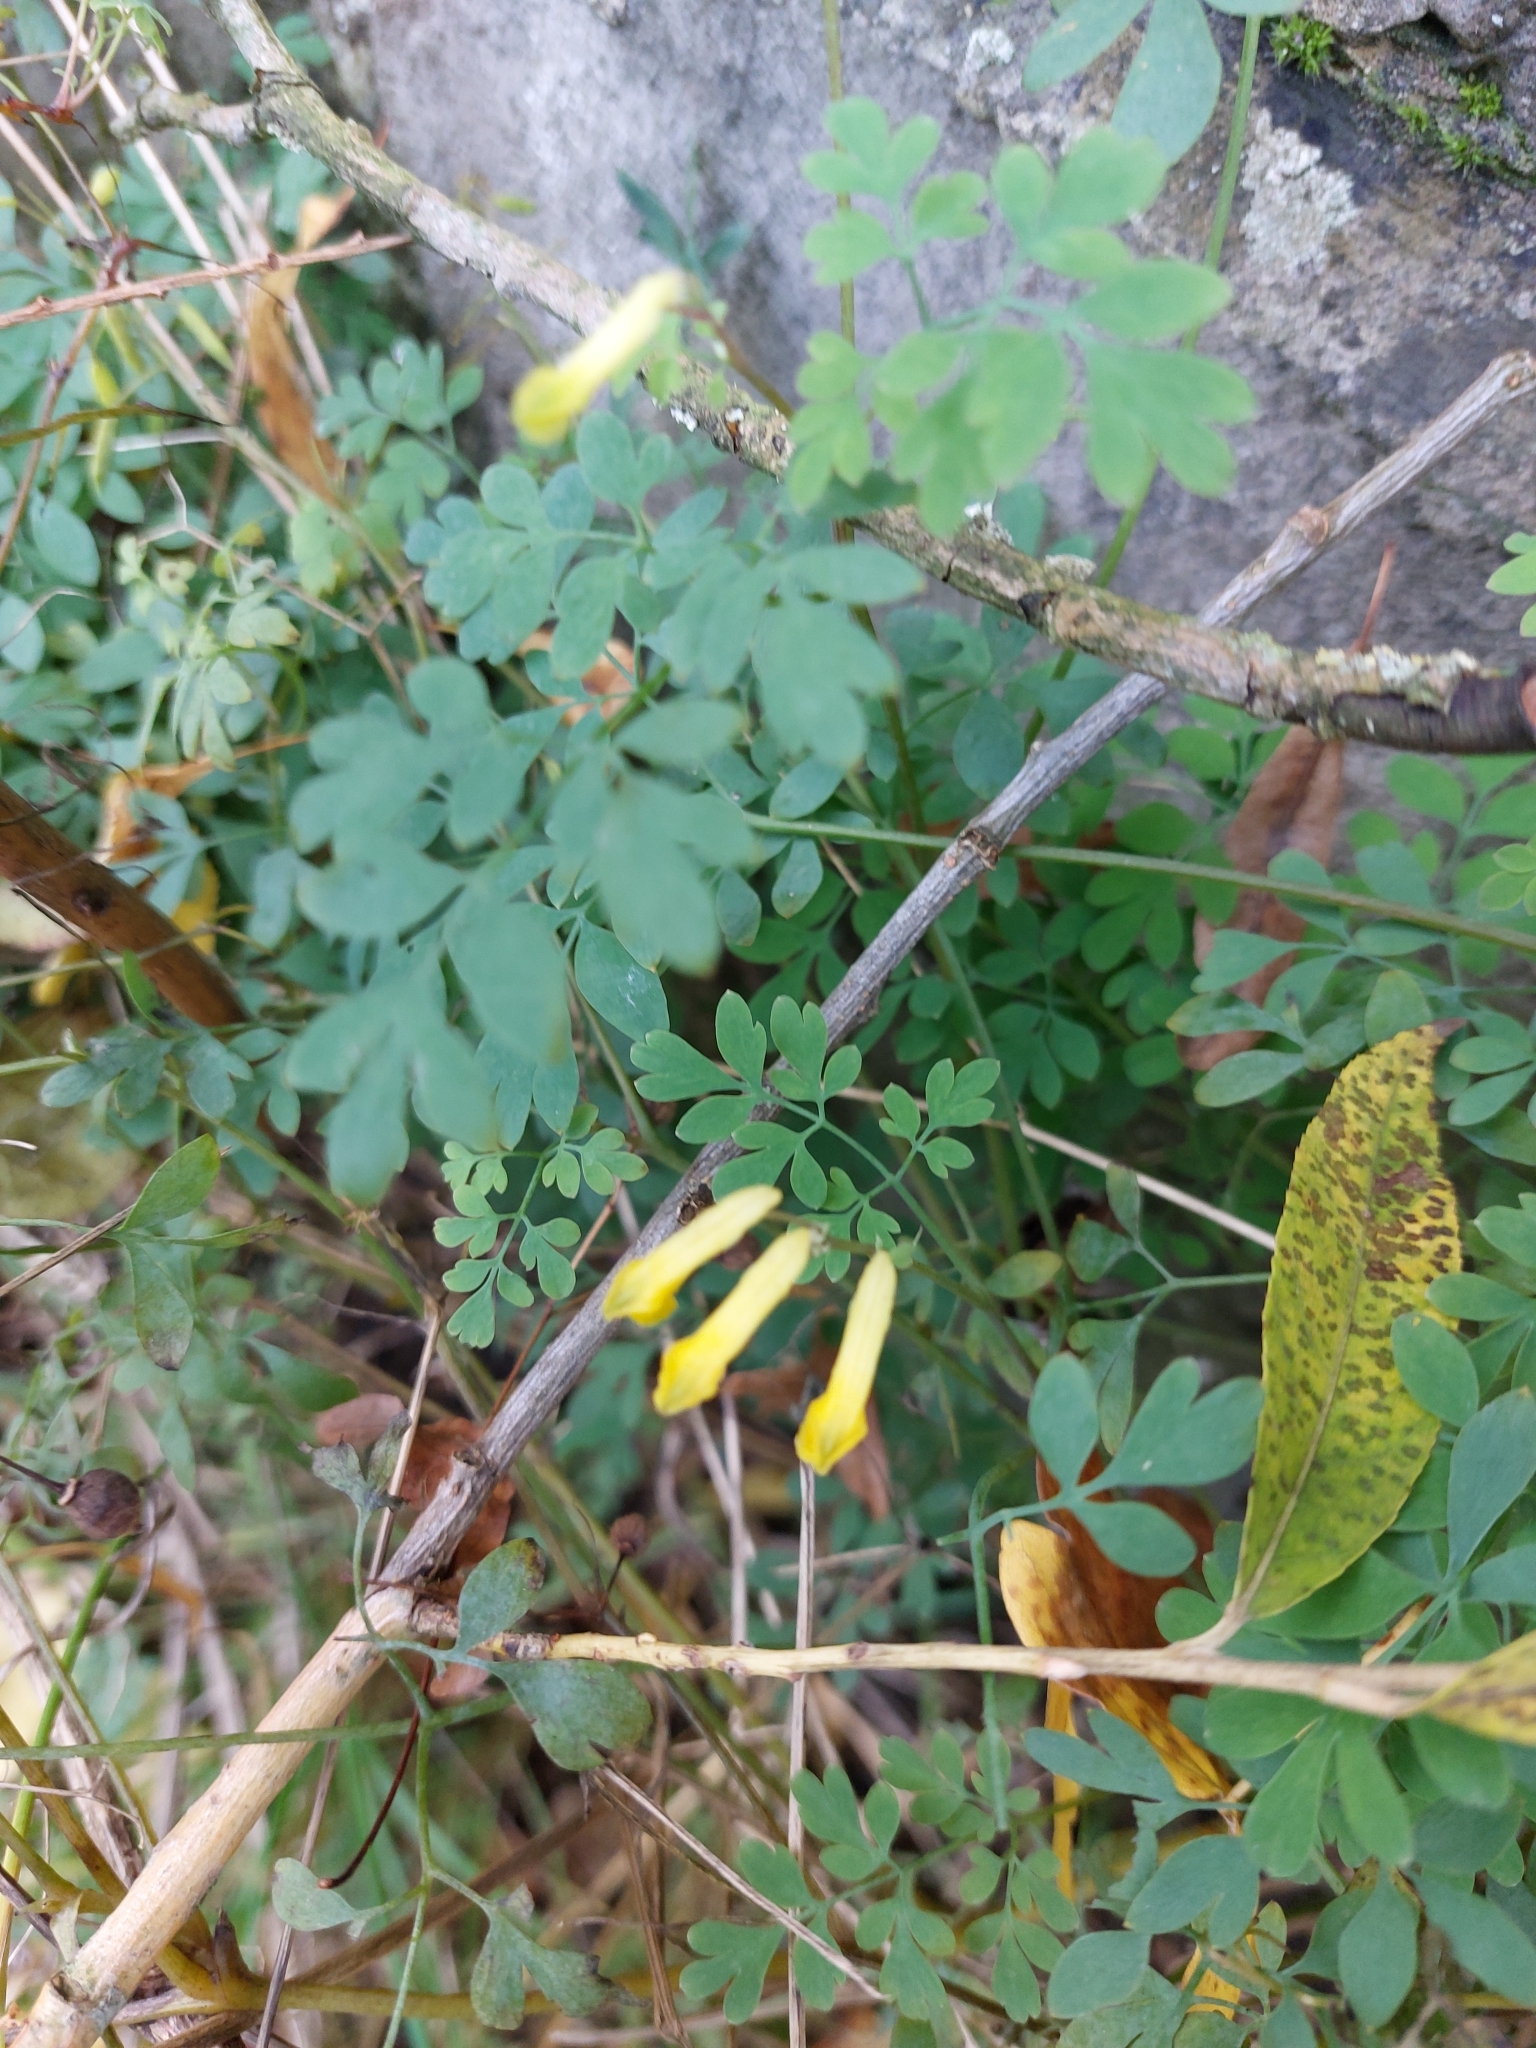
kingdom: Plantae
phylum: Tracheophyta
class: Magnoliopsida
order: Ranunculales
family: Papaveraceae
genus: Pseudofumaria
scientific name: Pseudofumaria lutea
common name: Yellow corydalis
